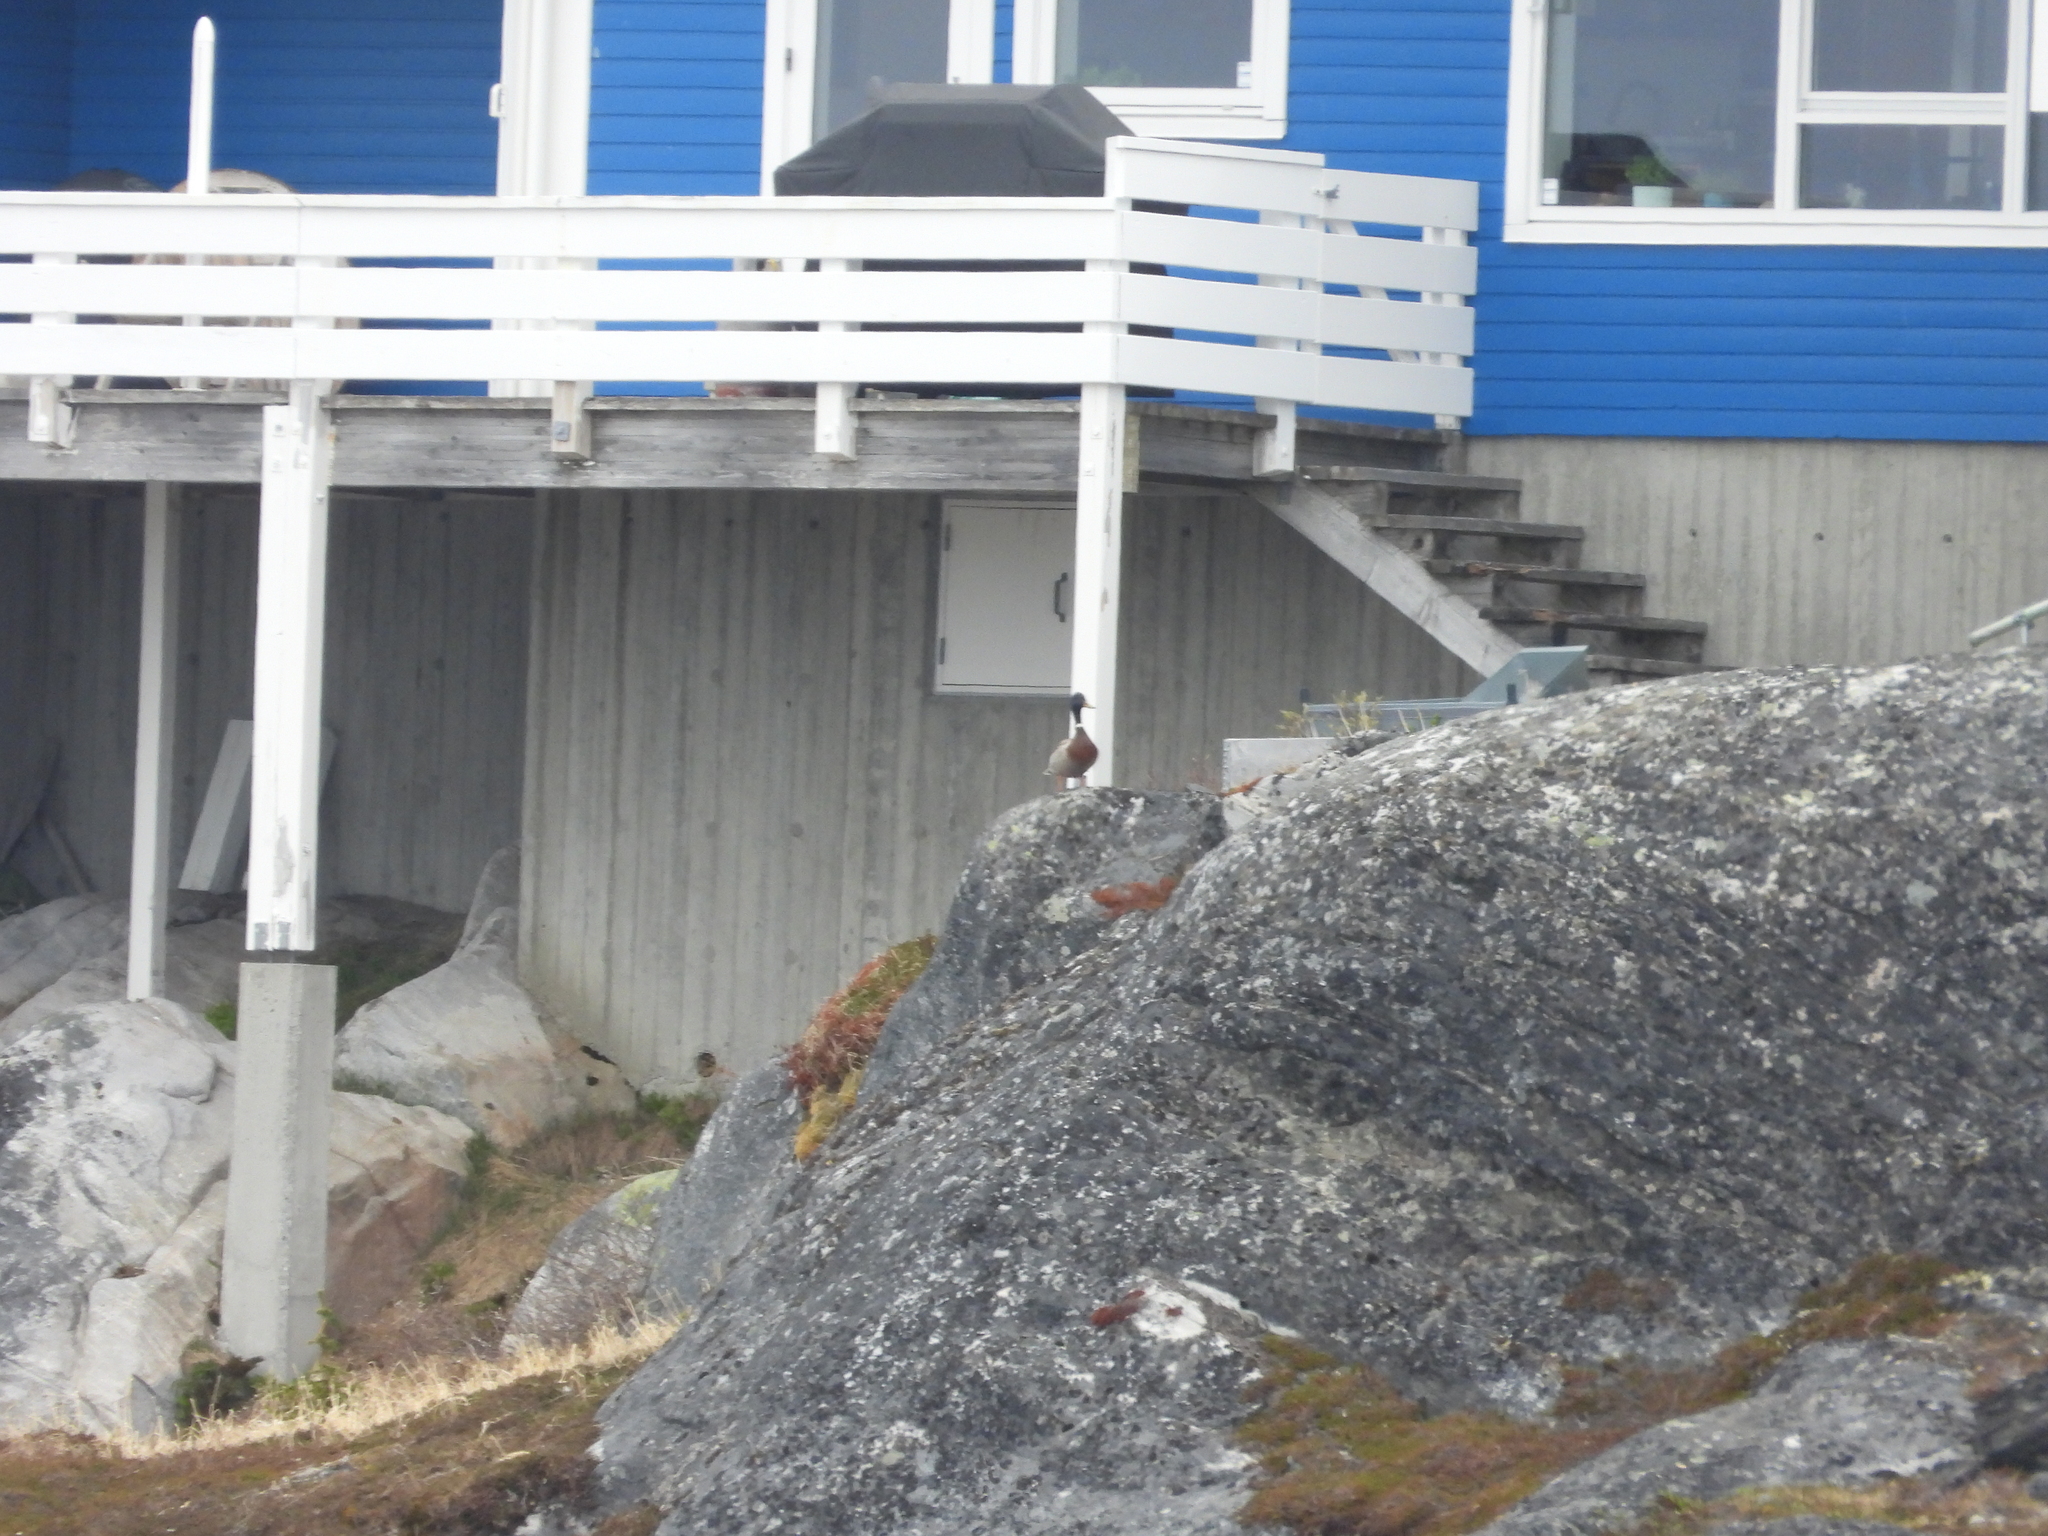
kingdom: Animalia
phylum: Chordata
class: Aves
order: Anseriformes
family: Anatidae
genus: Anas
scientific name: Anas platyrhynchos
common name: Mallard
